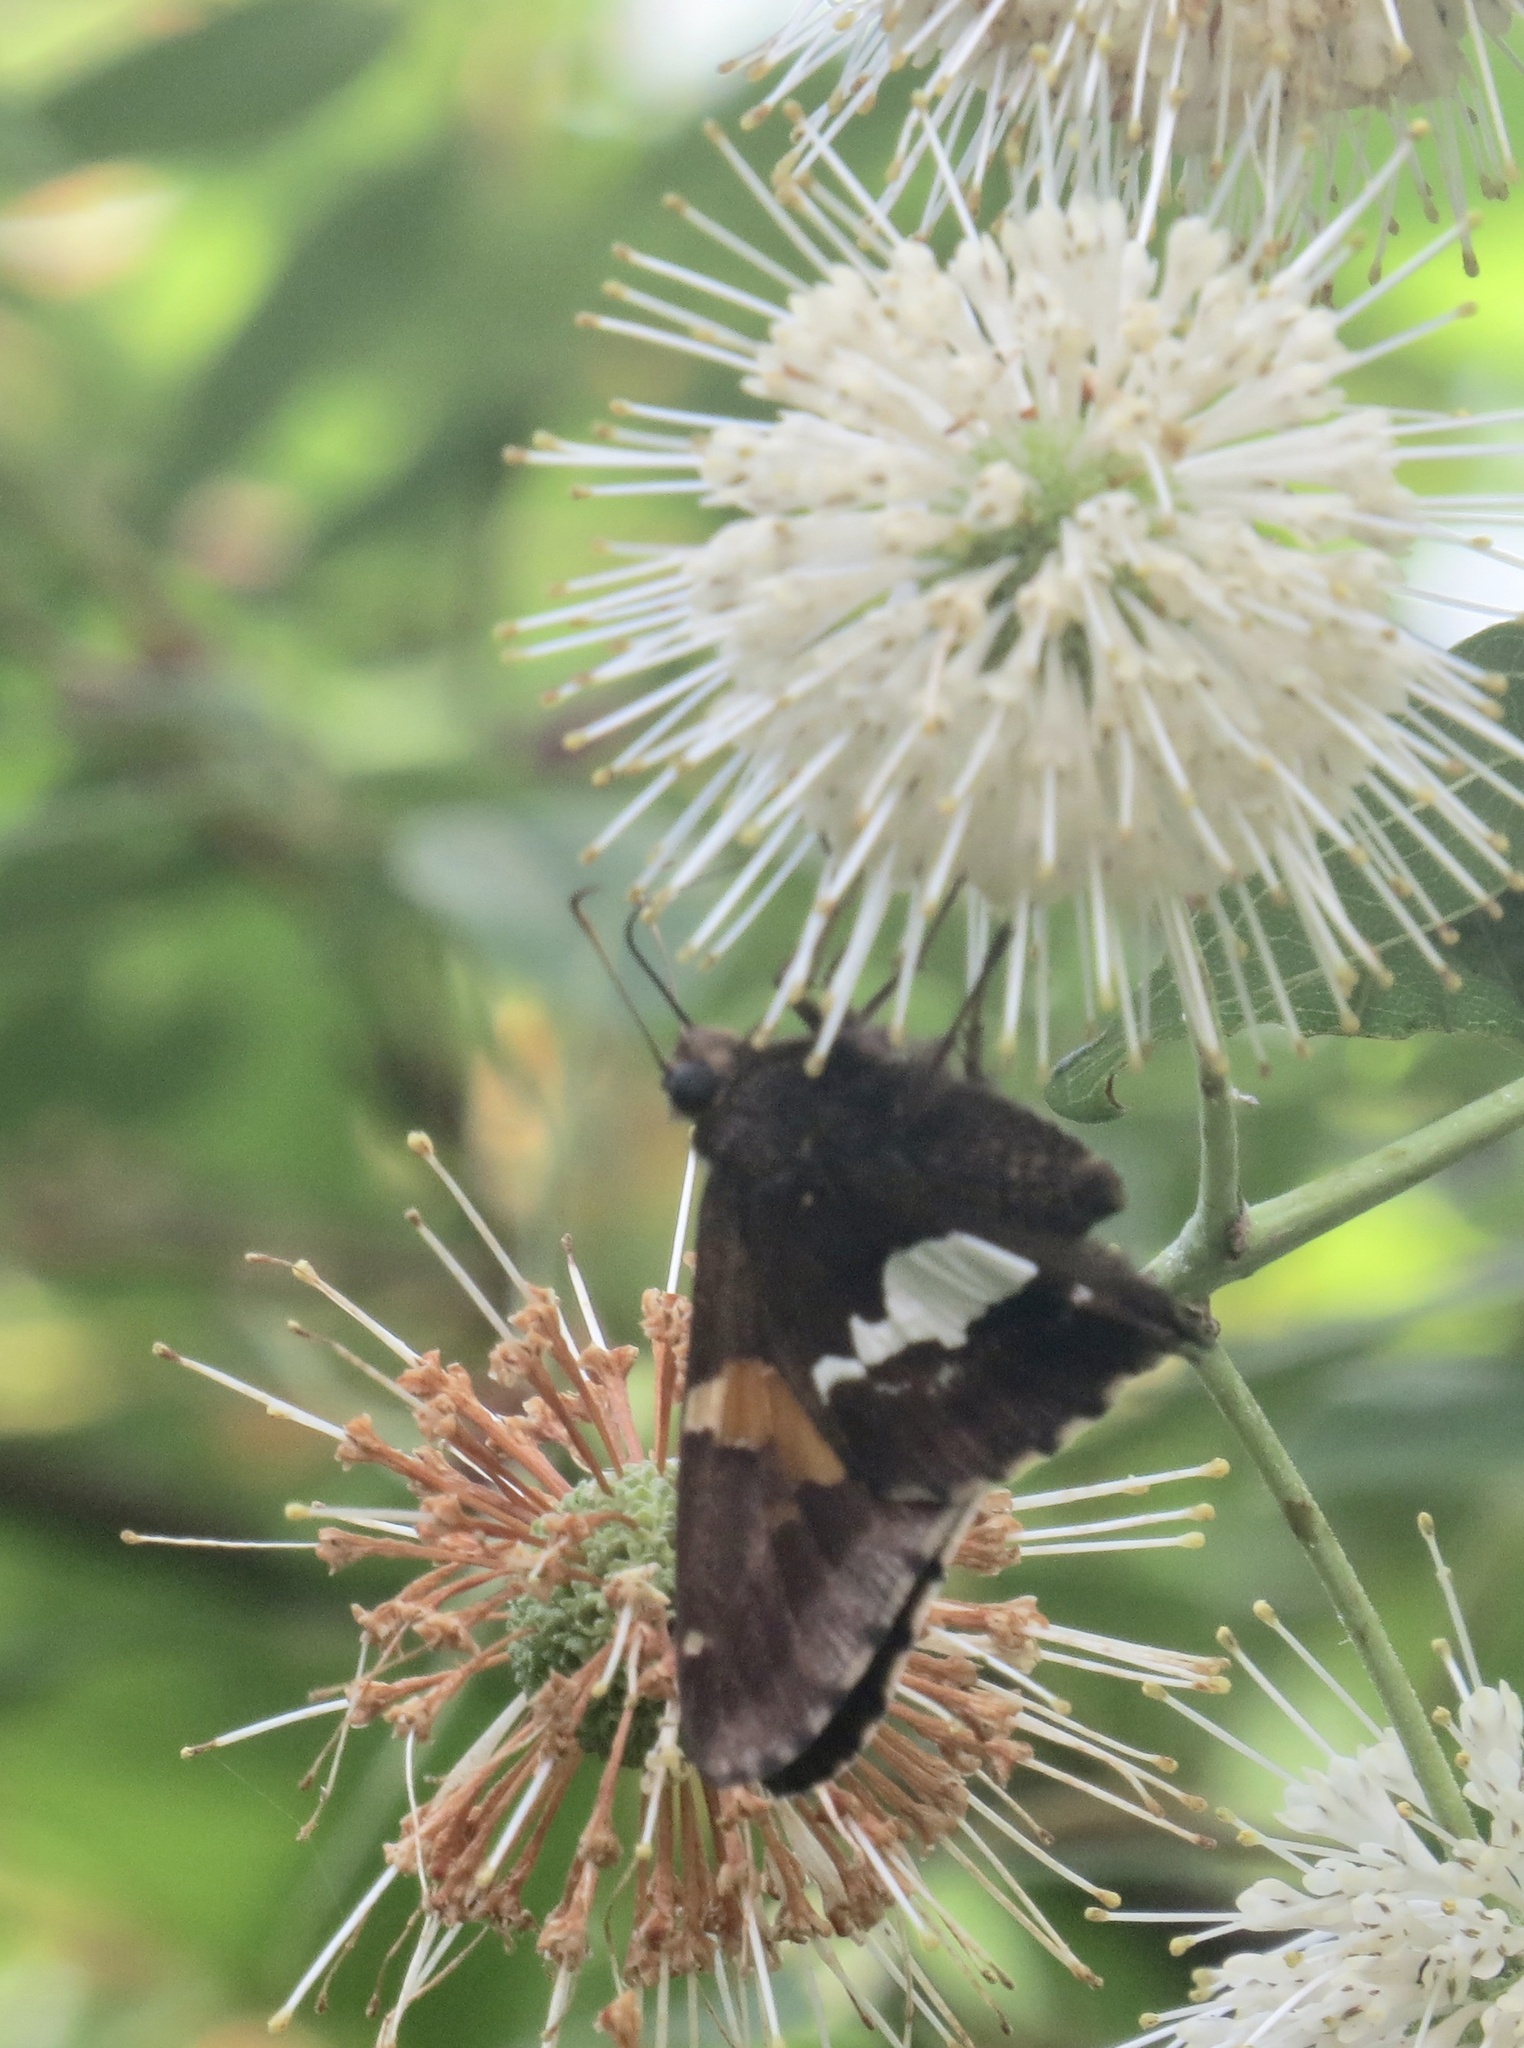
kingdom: Animalia
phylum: Arthropoda
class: Insecta
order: Lepidoptera
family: Hesperiidae
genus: Epargyreus
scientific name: Epargyreus clarus
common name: Silver-spotted skipper
